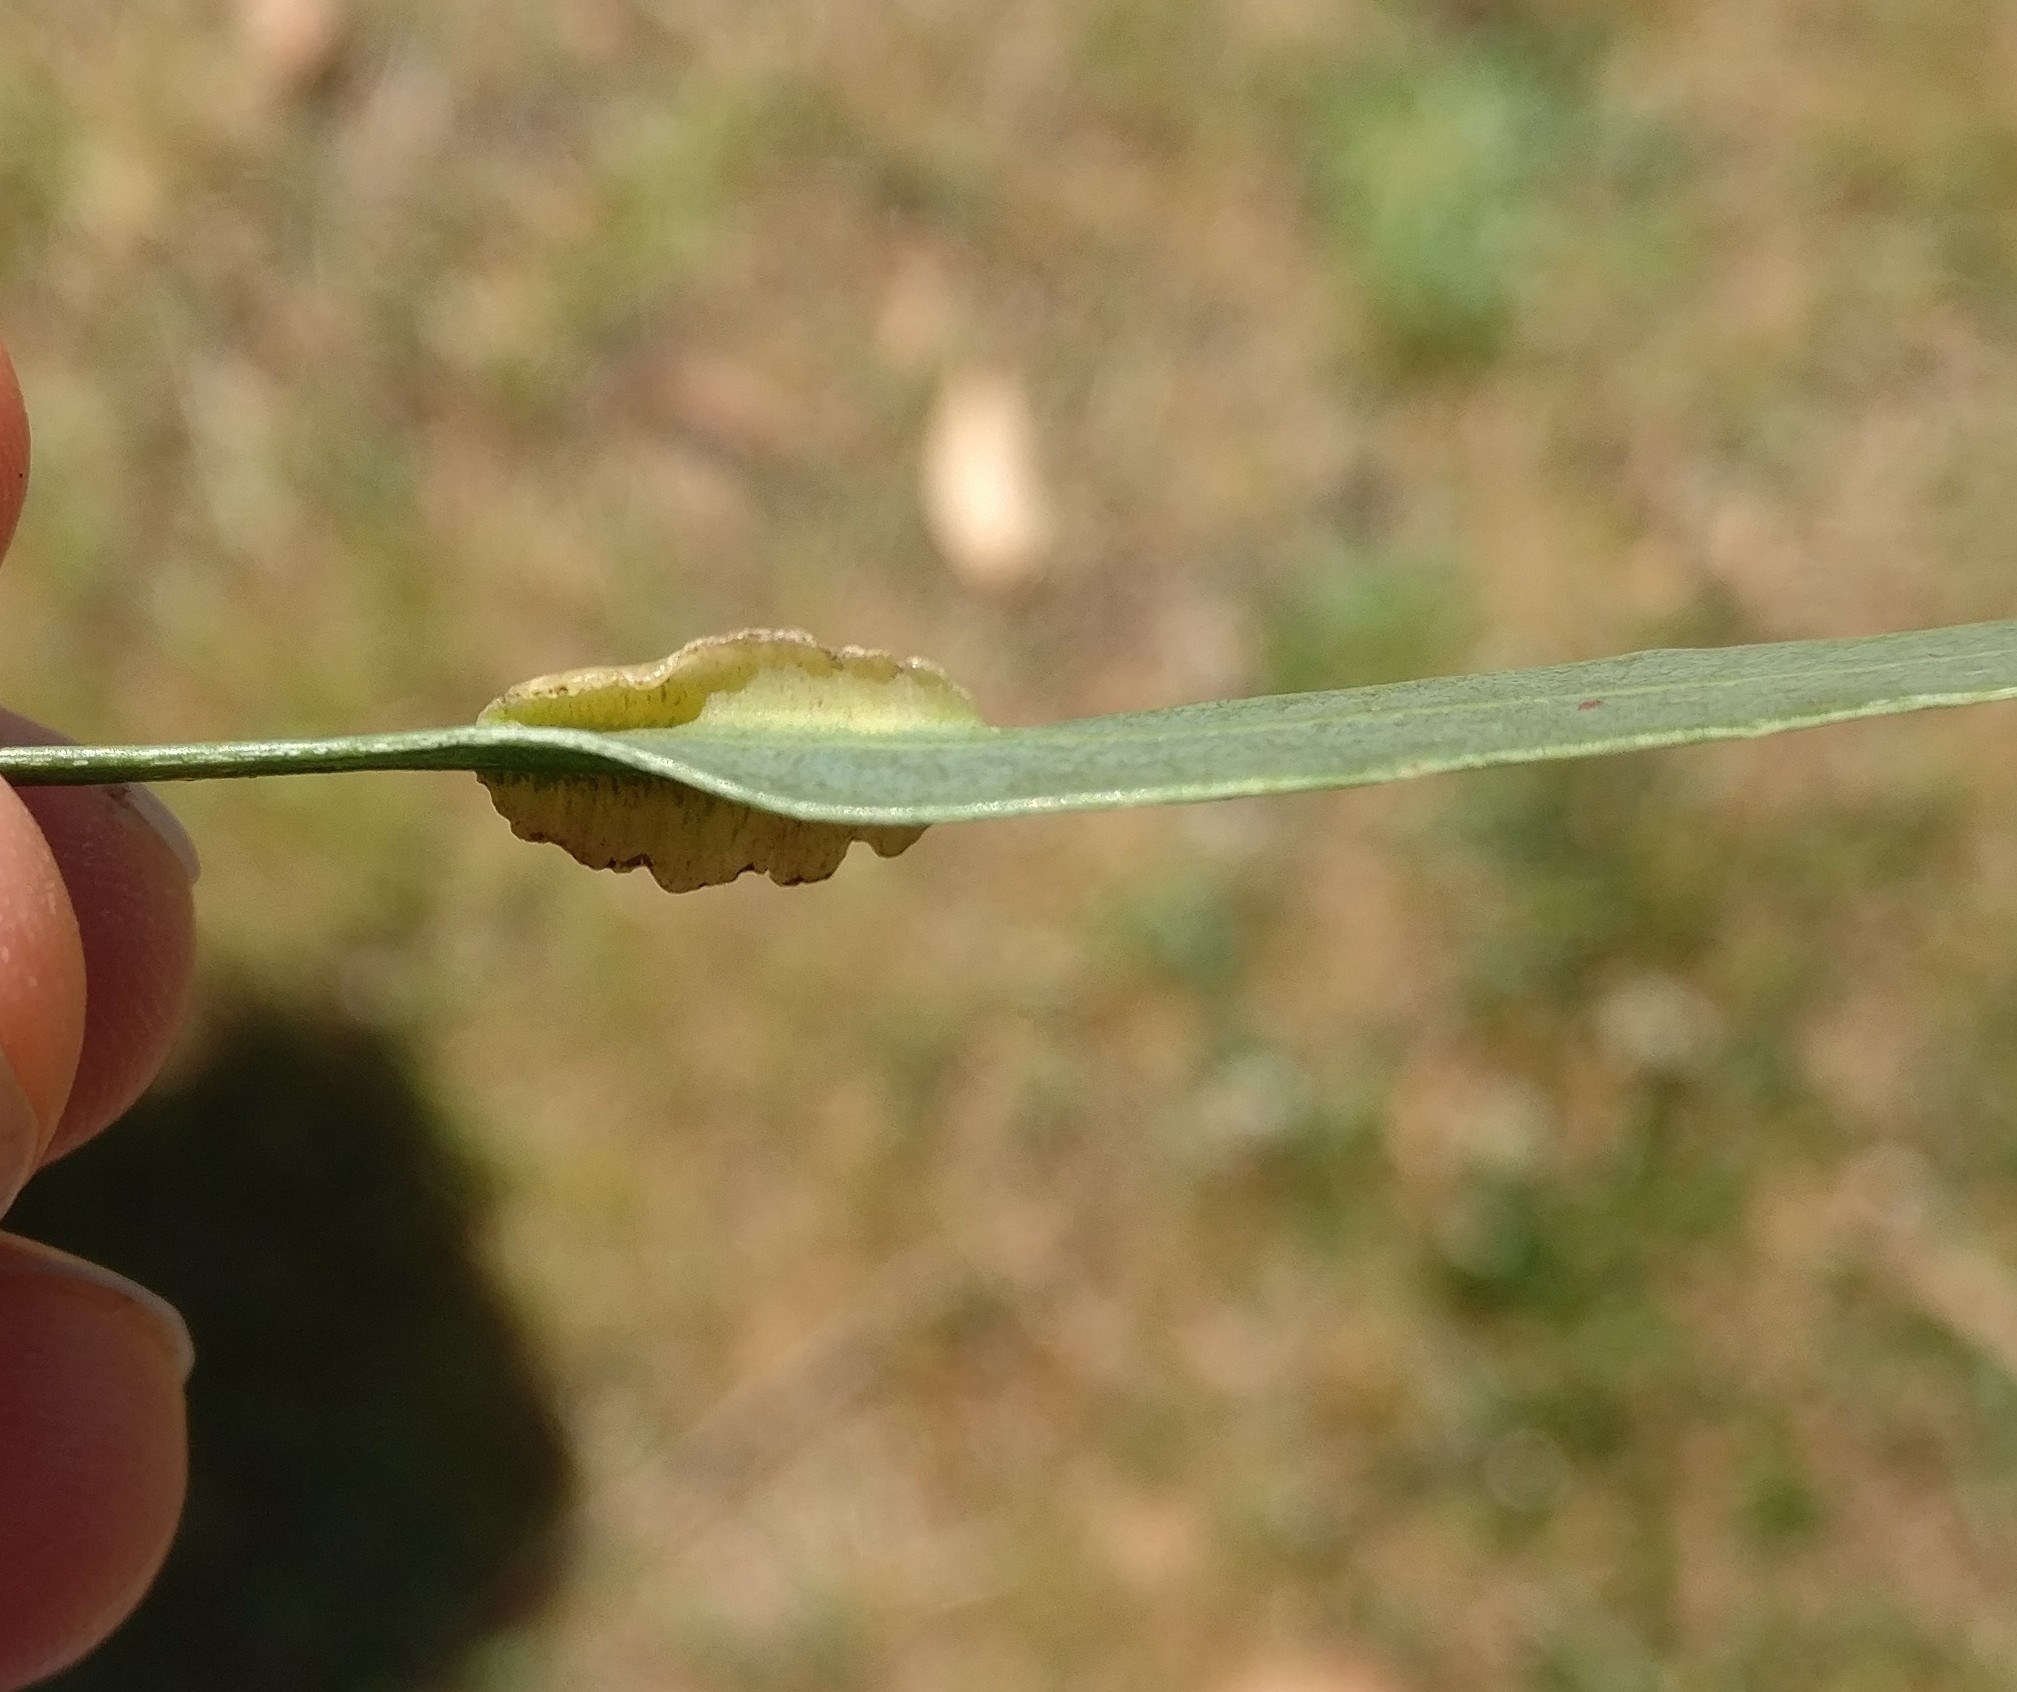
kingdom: Animalia
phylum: Arthropoda
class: Insecta
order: Hymenoptera
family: Pteromalidae
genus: Nambouria
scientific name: Nambouria xanthops
